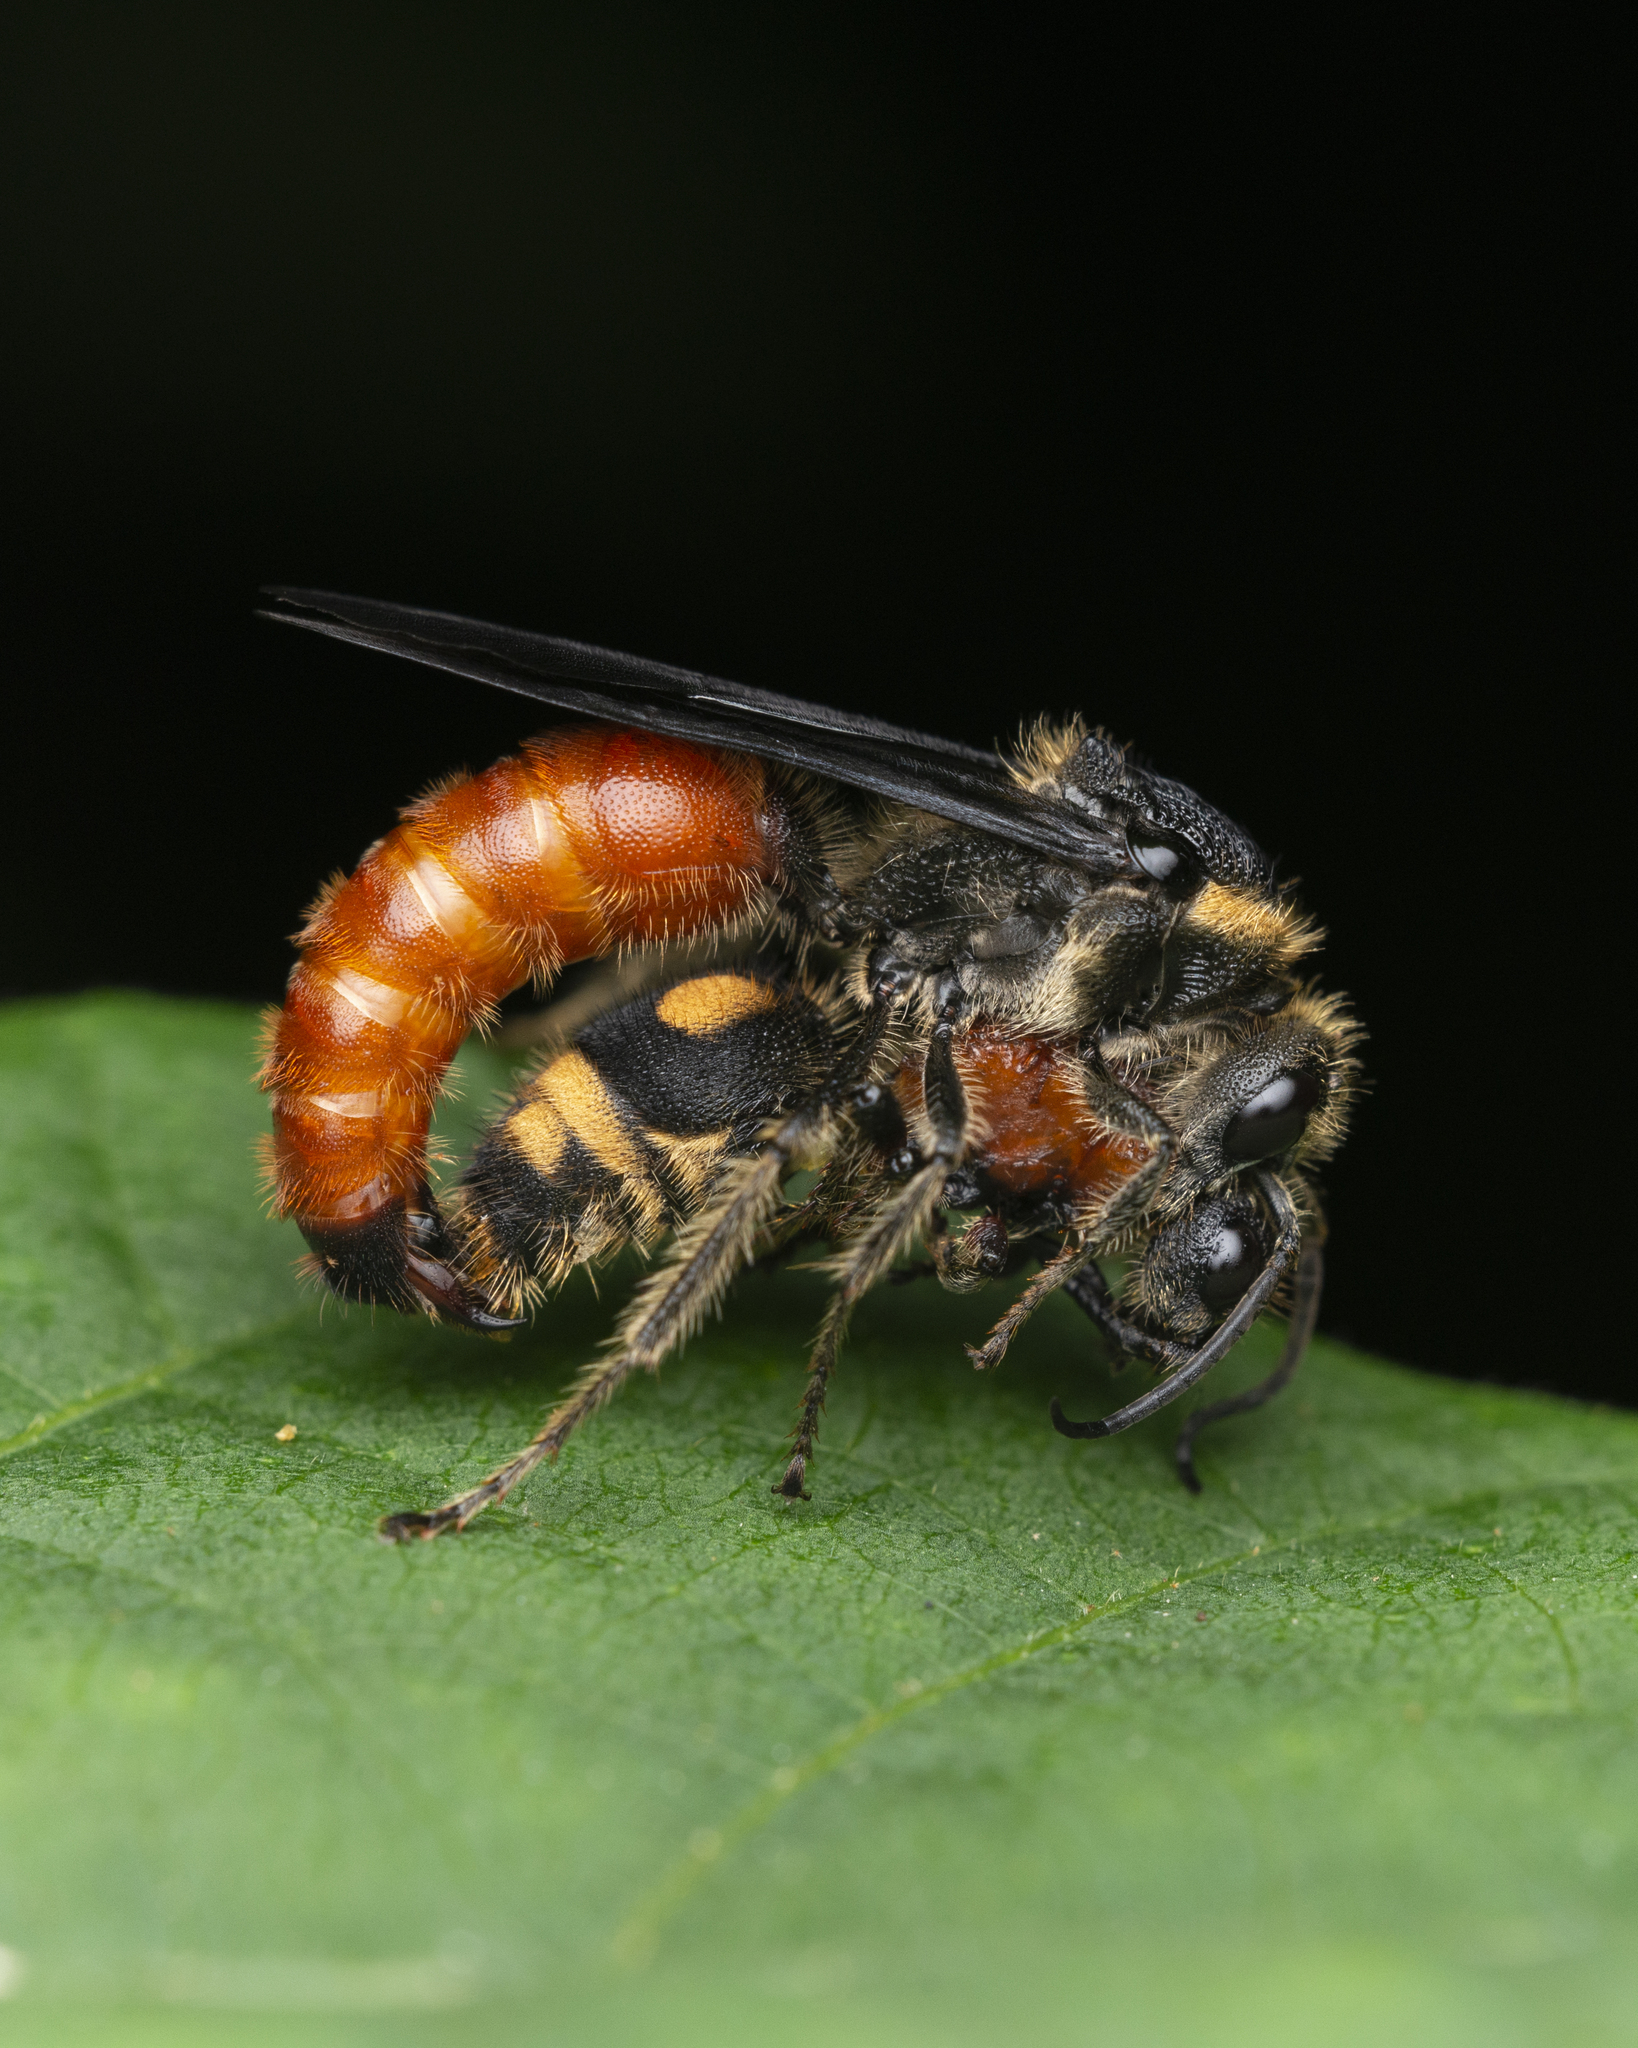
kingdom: Animalia
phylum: Arthropoda
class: Insecta
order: Hymenoptera
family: Mutillidae
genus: Mutilla
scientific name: Mutilla oculata
